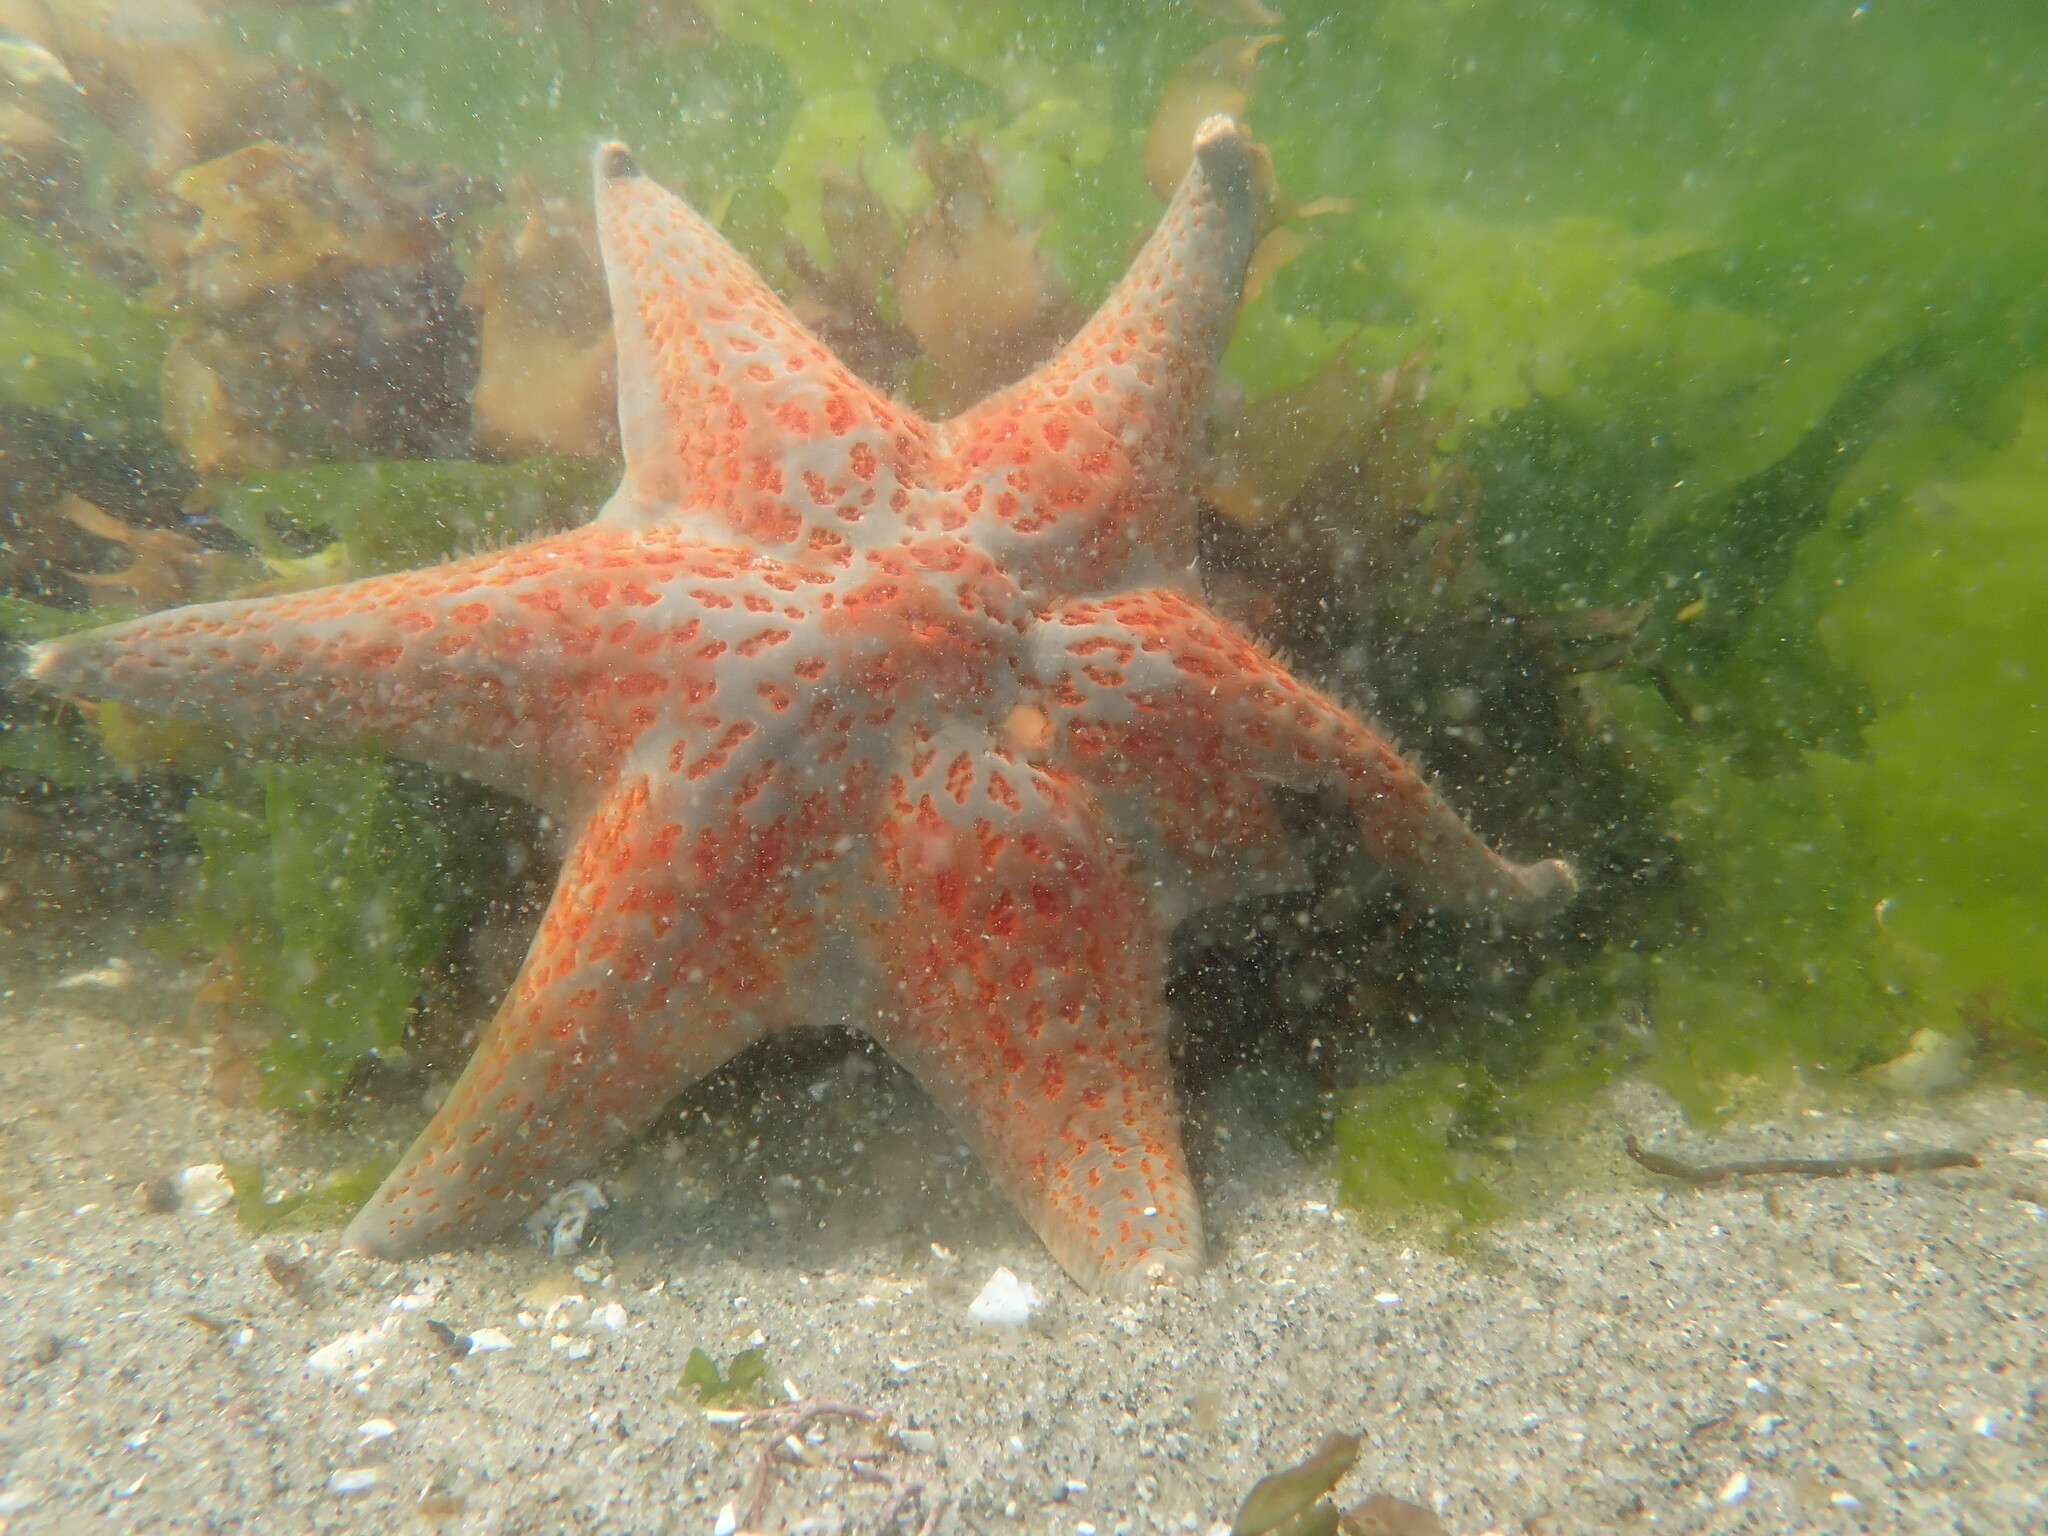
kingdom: Animalia
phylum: Echinodermata
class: Asteroidea
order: Valvatida
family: Asteropseidae
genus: Dermasterias
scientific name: Dermasterias imbricata
